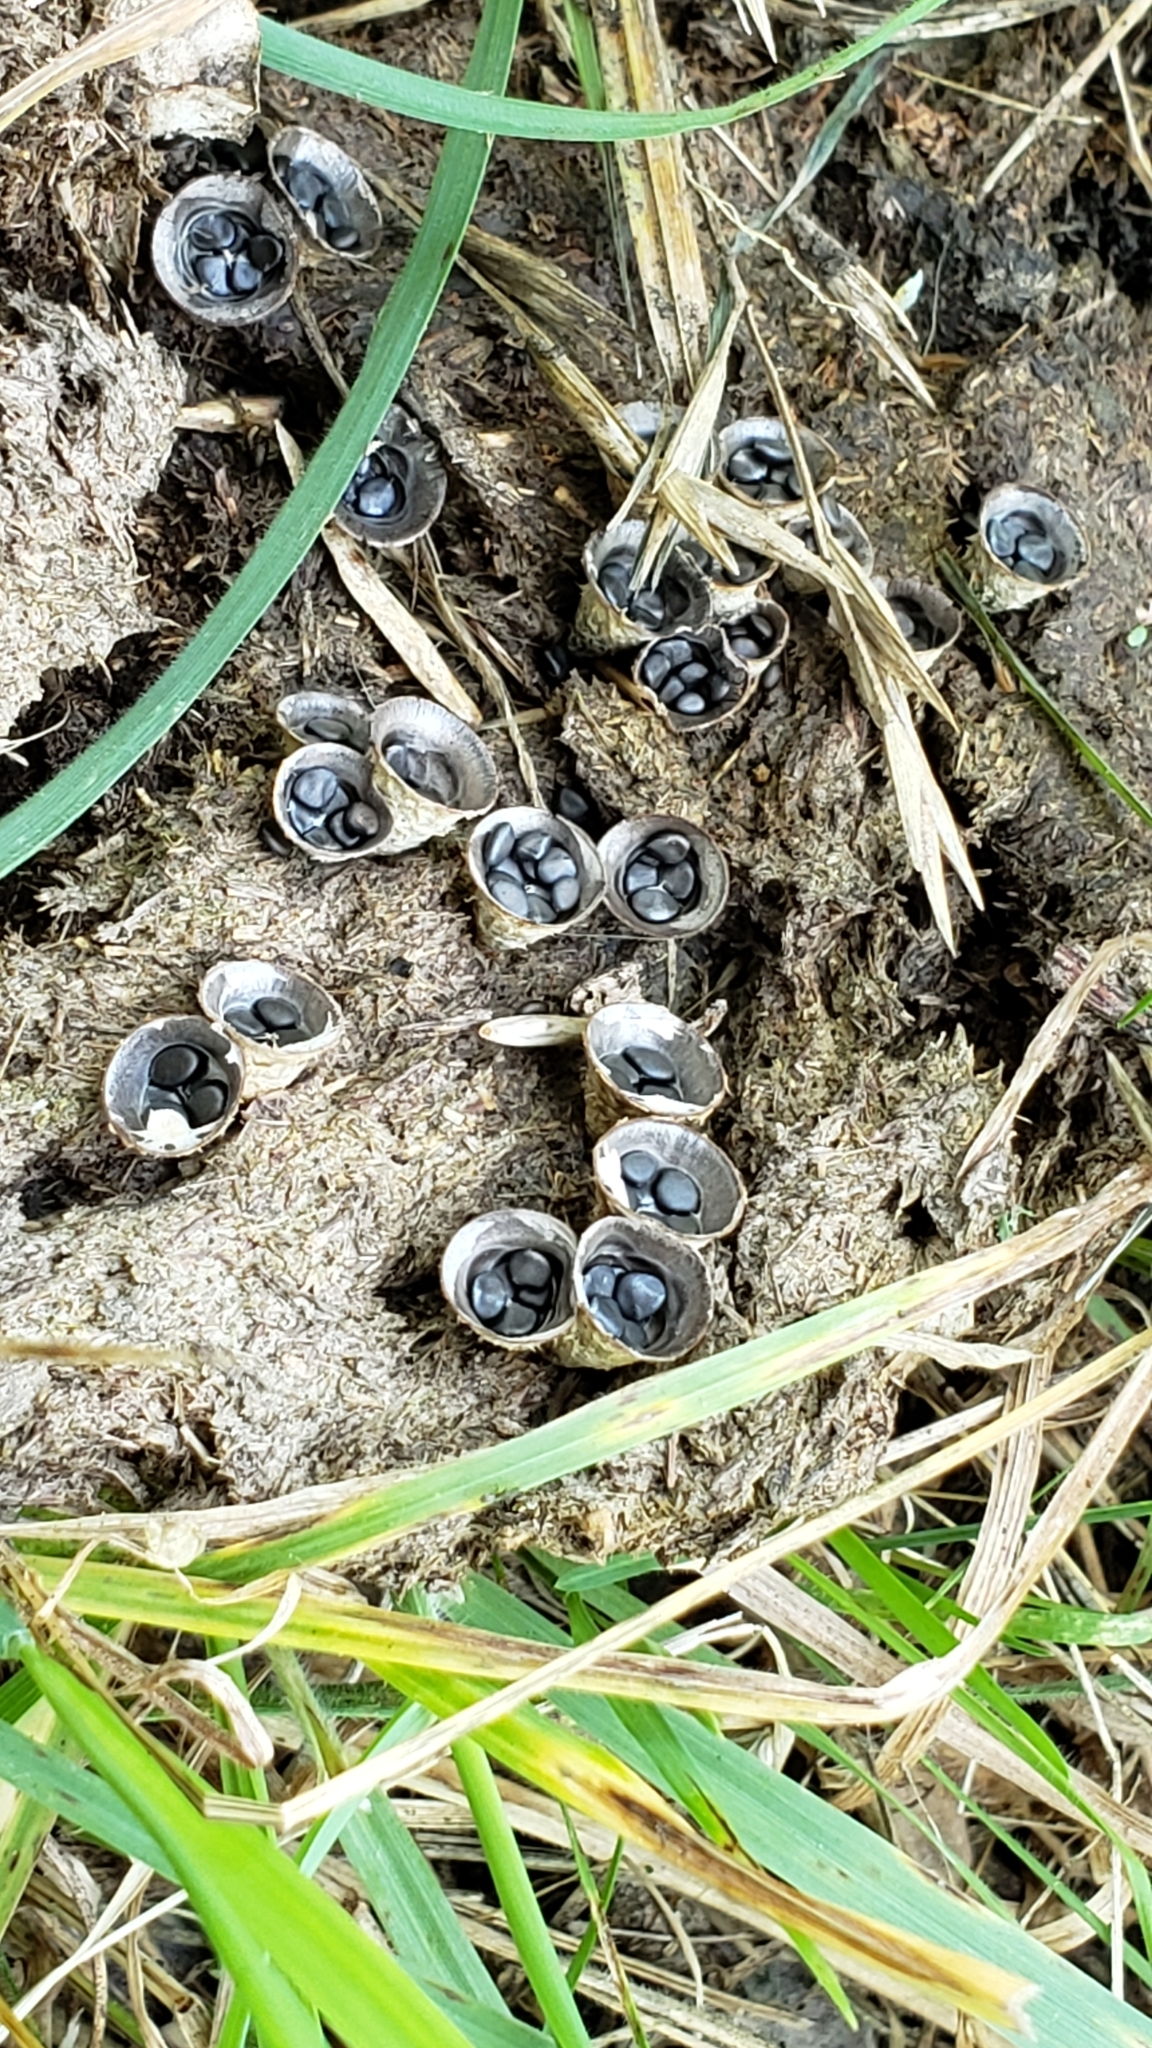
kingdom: Fungi
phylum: Basidiomycota
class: Agaricomycetes
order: Agaricales
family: Agaricaceae
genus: Cyathus
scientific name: Cyathus stercoreus
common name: Dung bird's nest
